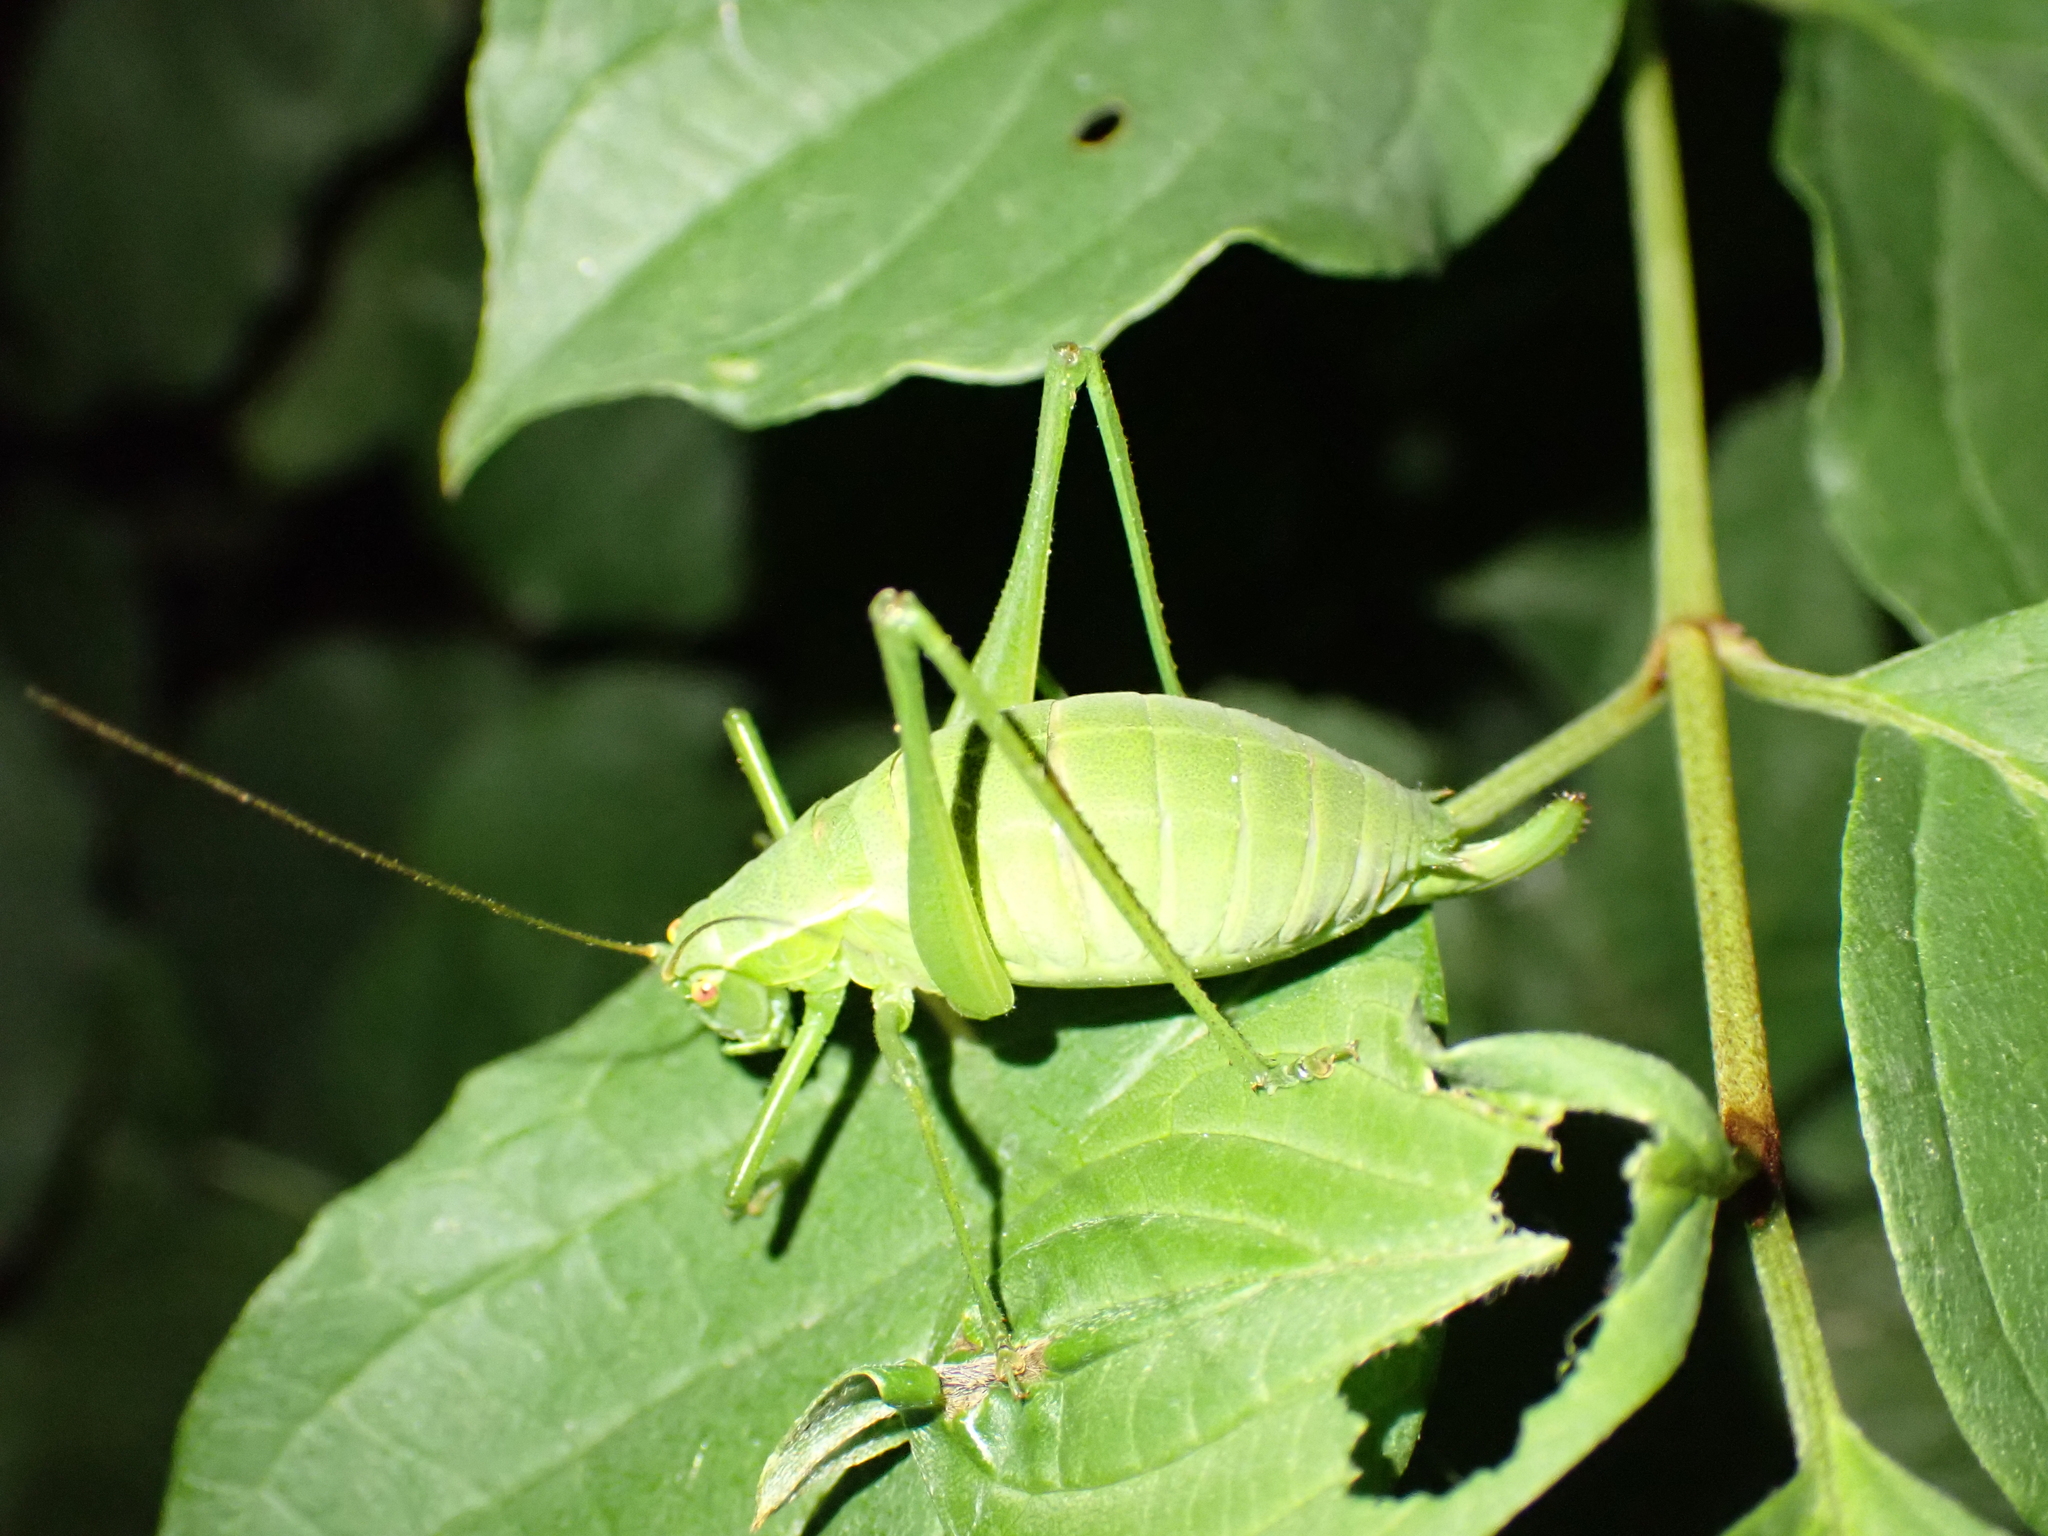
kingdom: Animalia
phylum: Arthropoda
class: Insecta
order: Orthoptera
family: Tettigoniidae
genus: Isophya
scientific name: Isophya brevicauda
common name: Short-tailed plump bush-cricket
